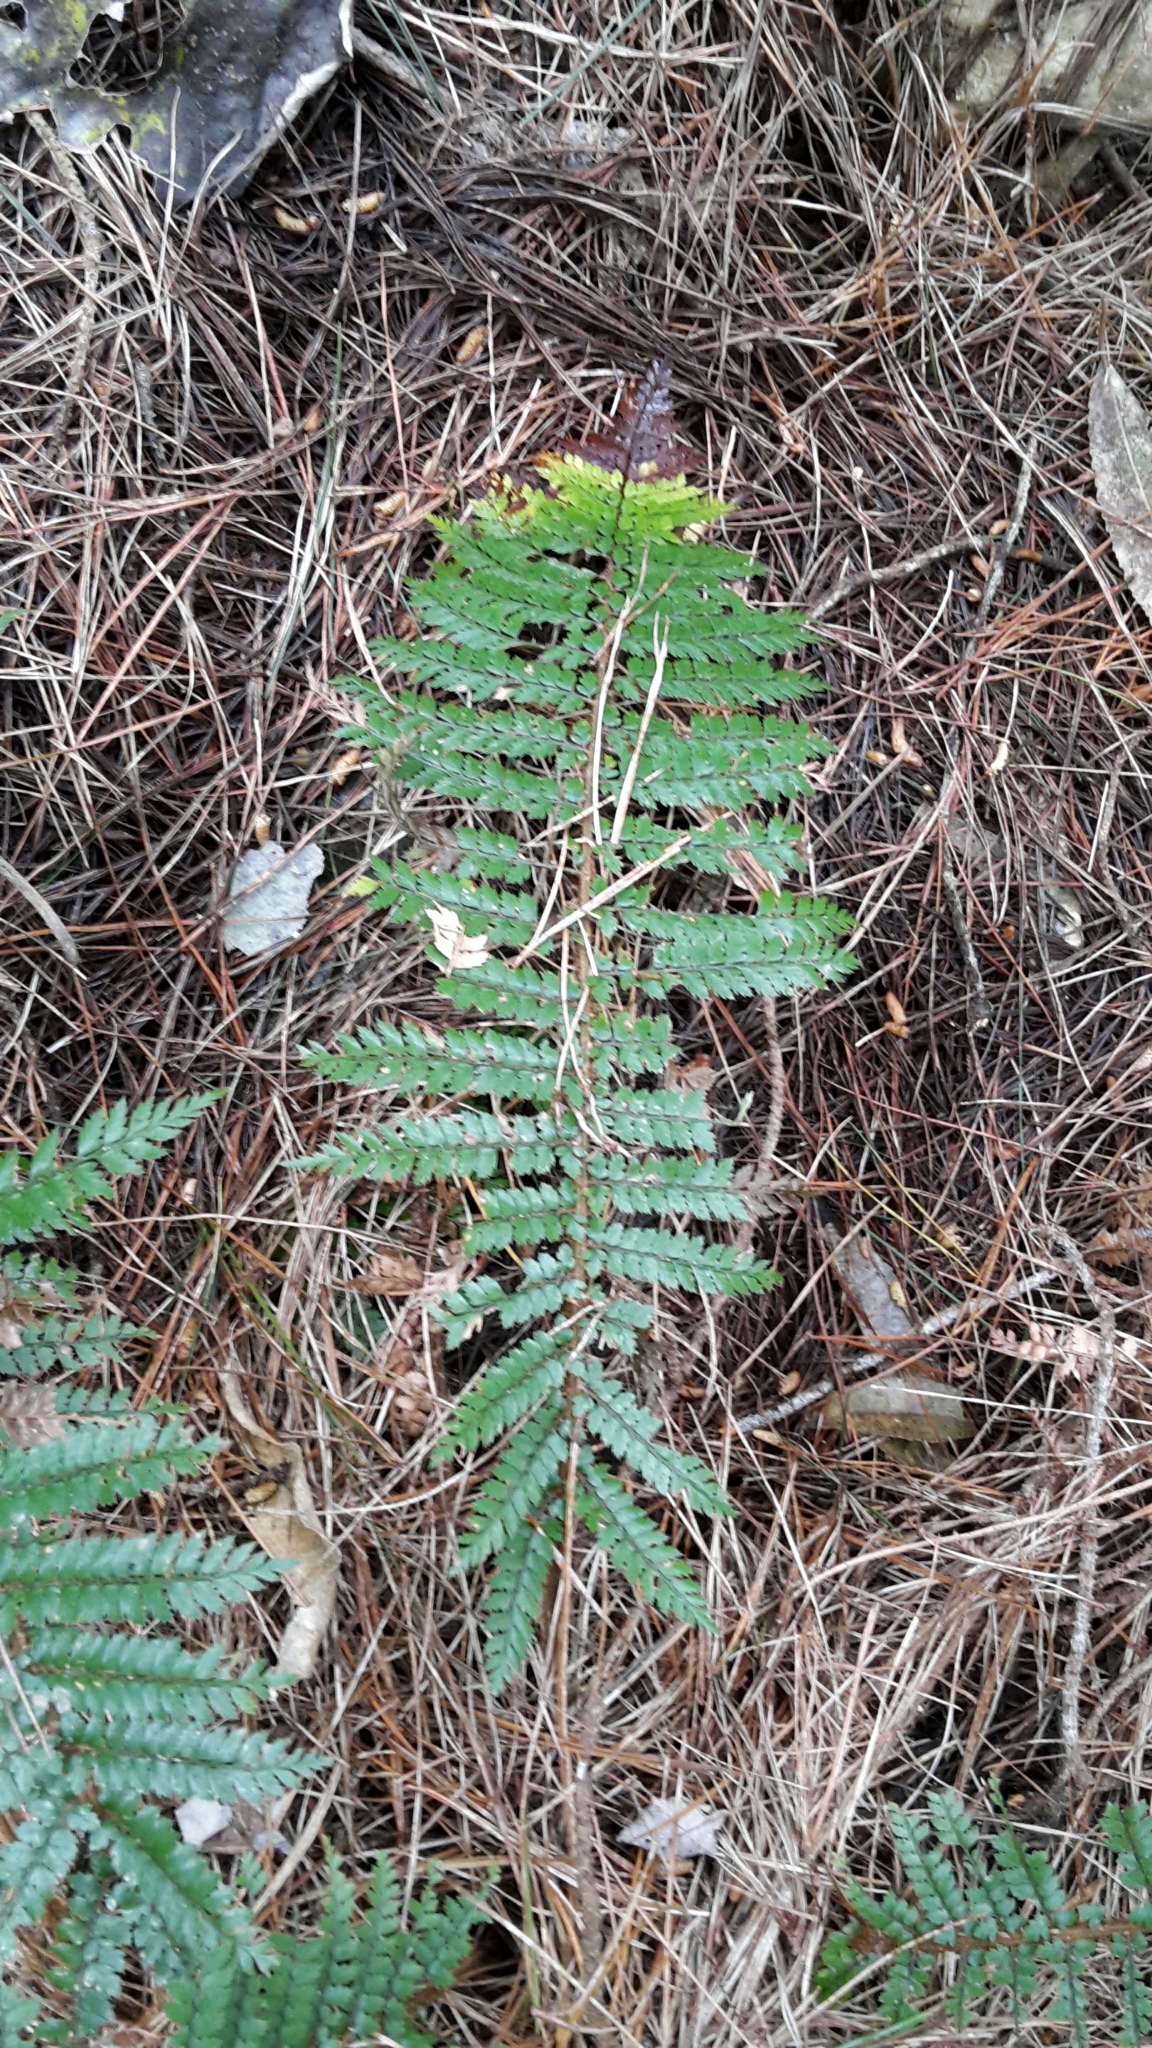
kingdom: Plantae
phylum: Tracheophyta
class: Polypodiopsida
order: Polypodiales
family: Dryopteridaceae
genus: Polystichum
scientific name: Polystichum vestitum
